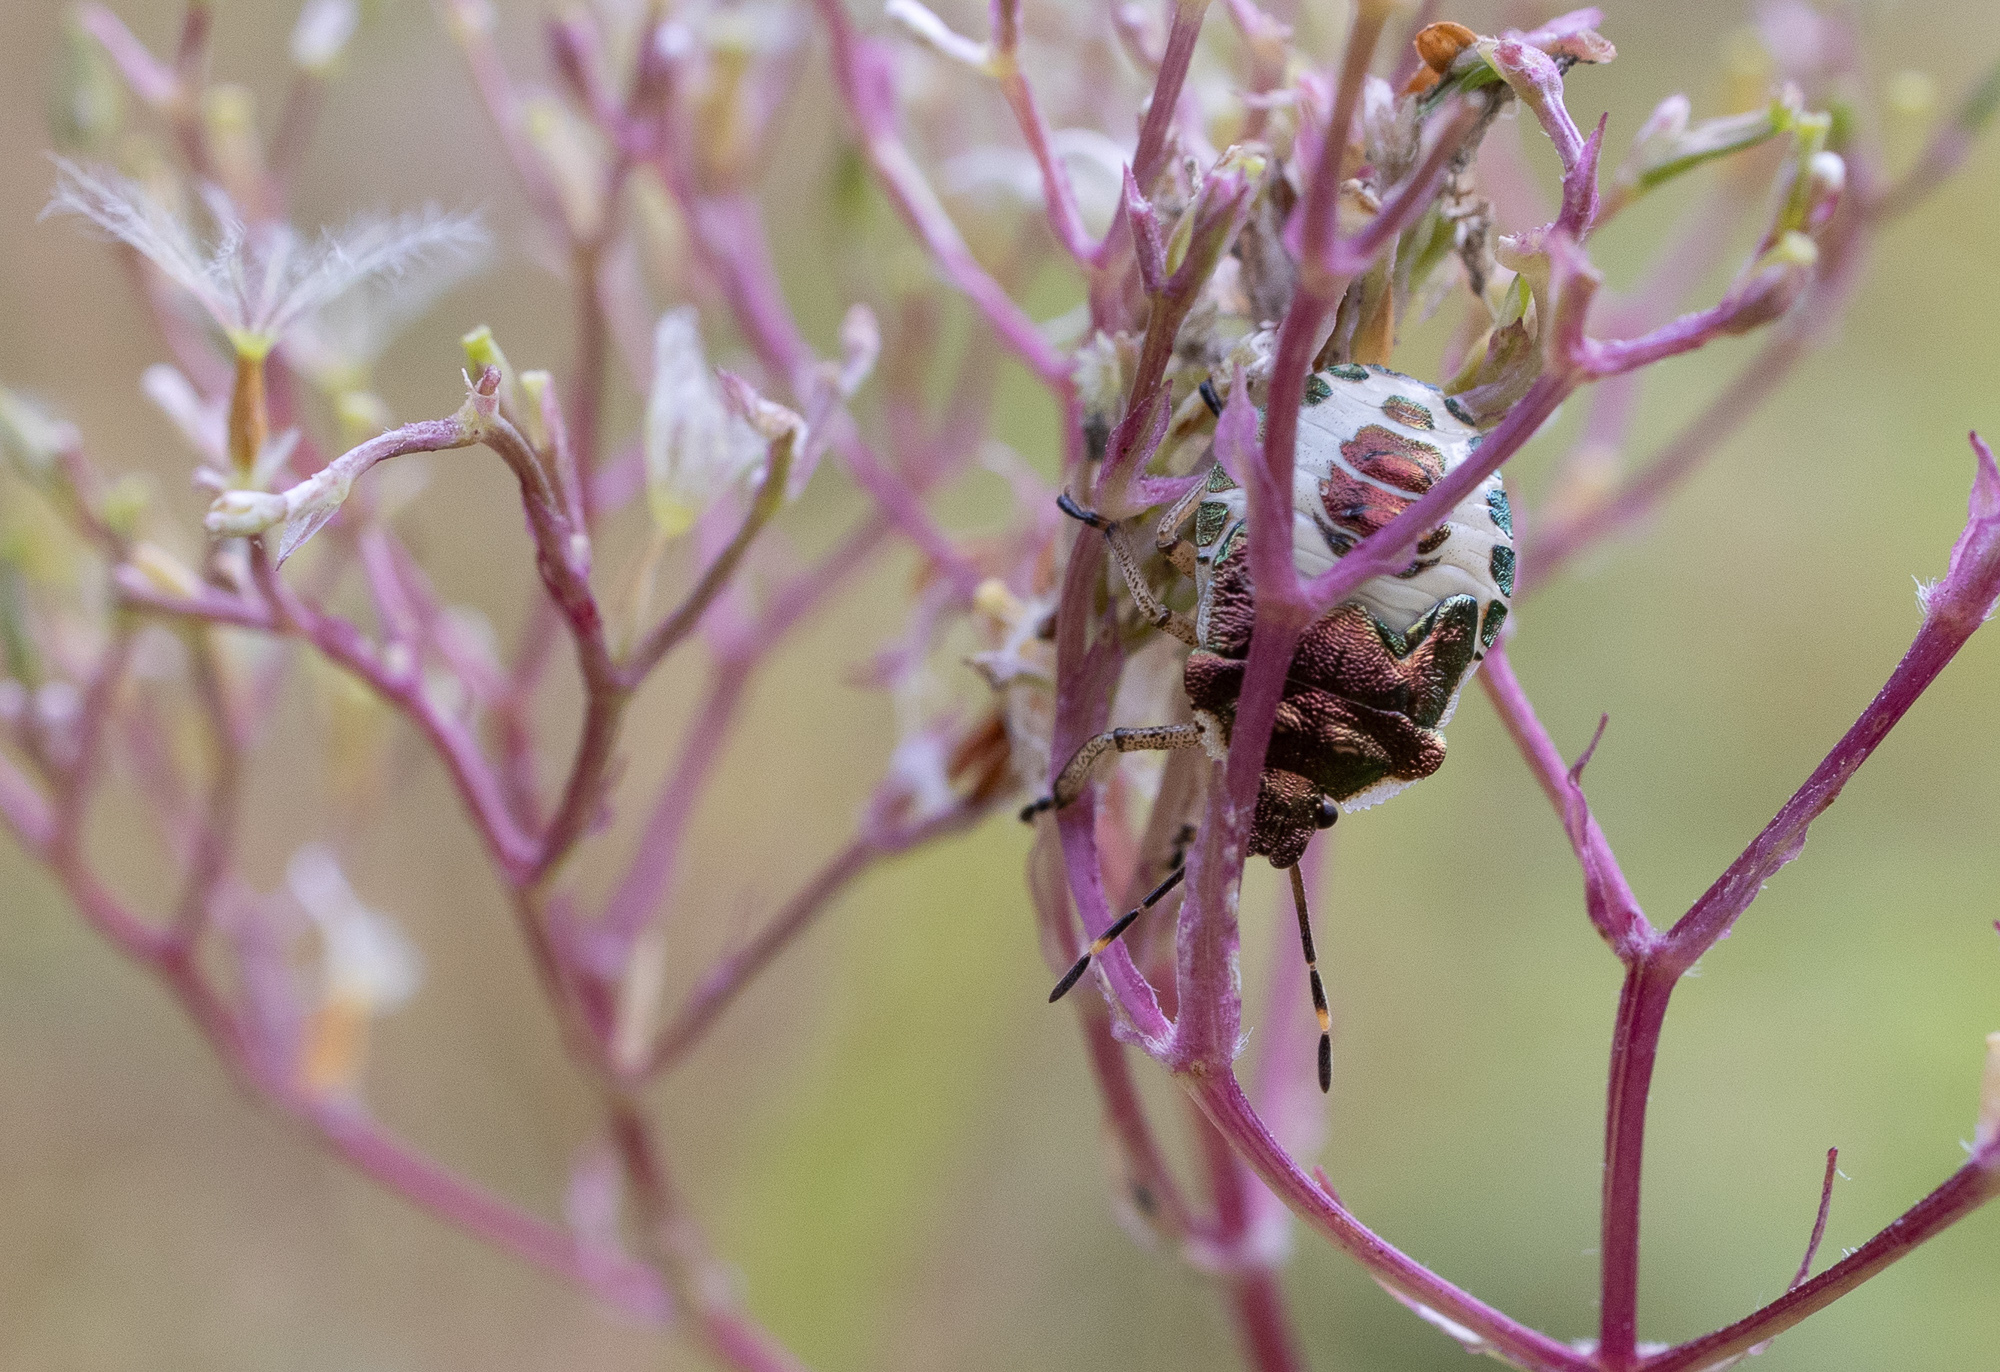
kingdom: Animalia
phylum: Arthropoda
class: Insecta
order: Hemiptera
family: Pentatomidae
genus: Troilus
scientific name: Troilus luridus
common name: Bronze shieldbug
